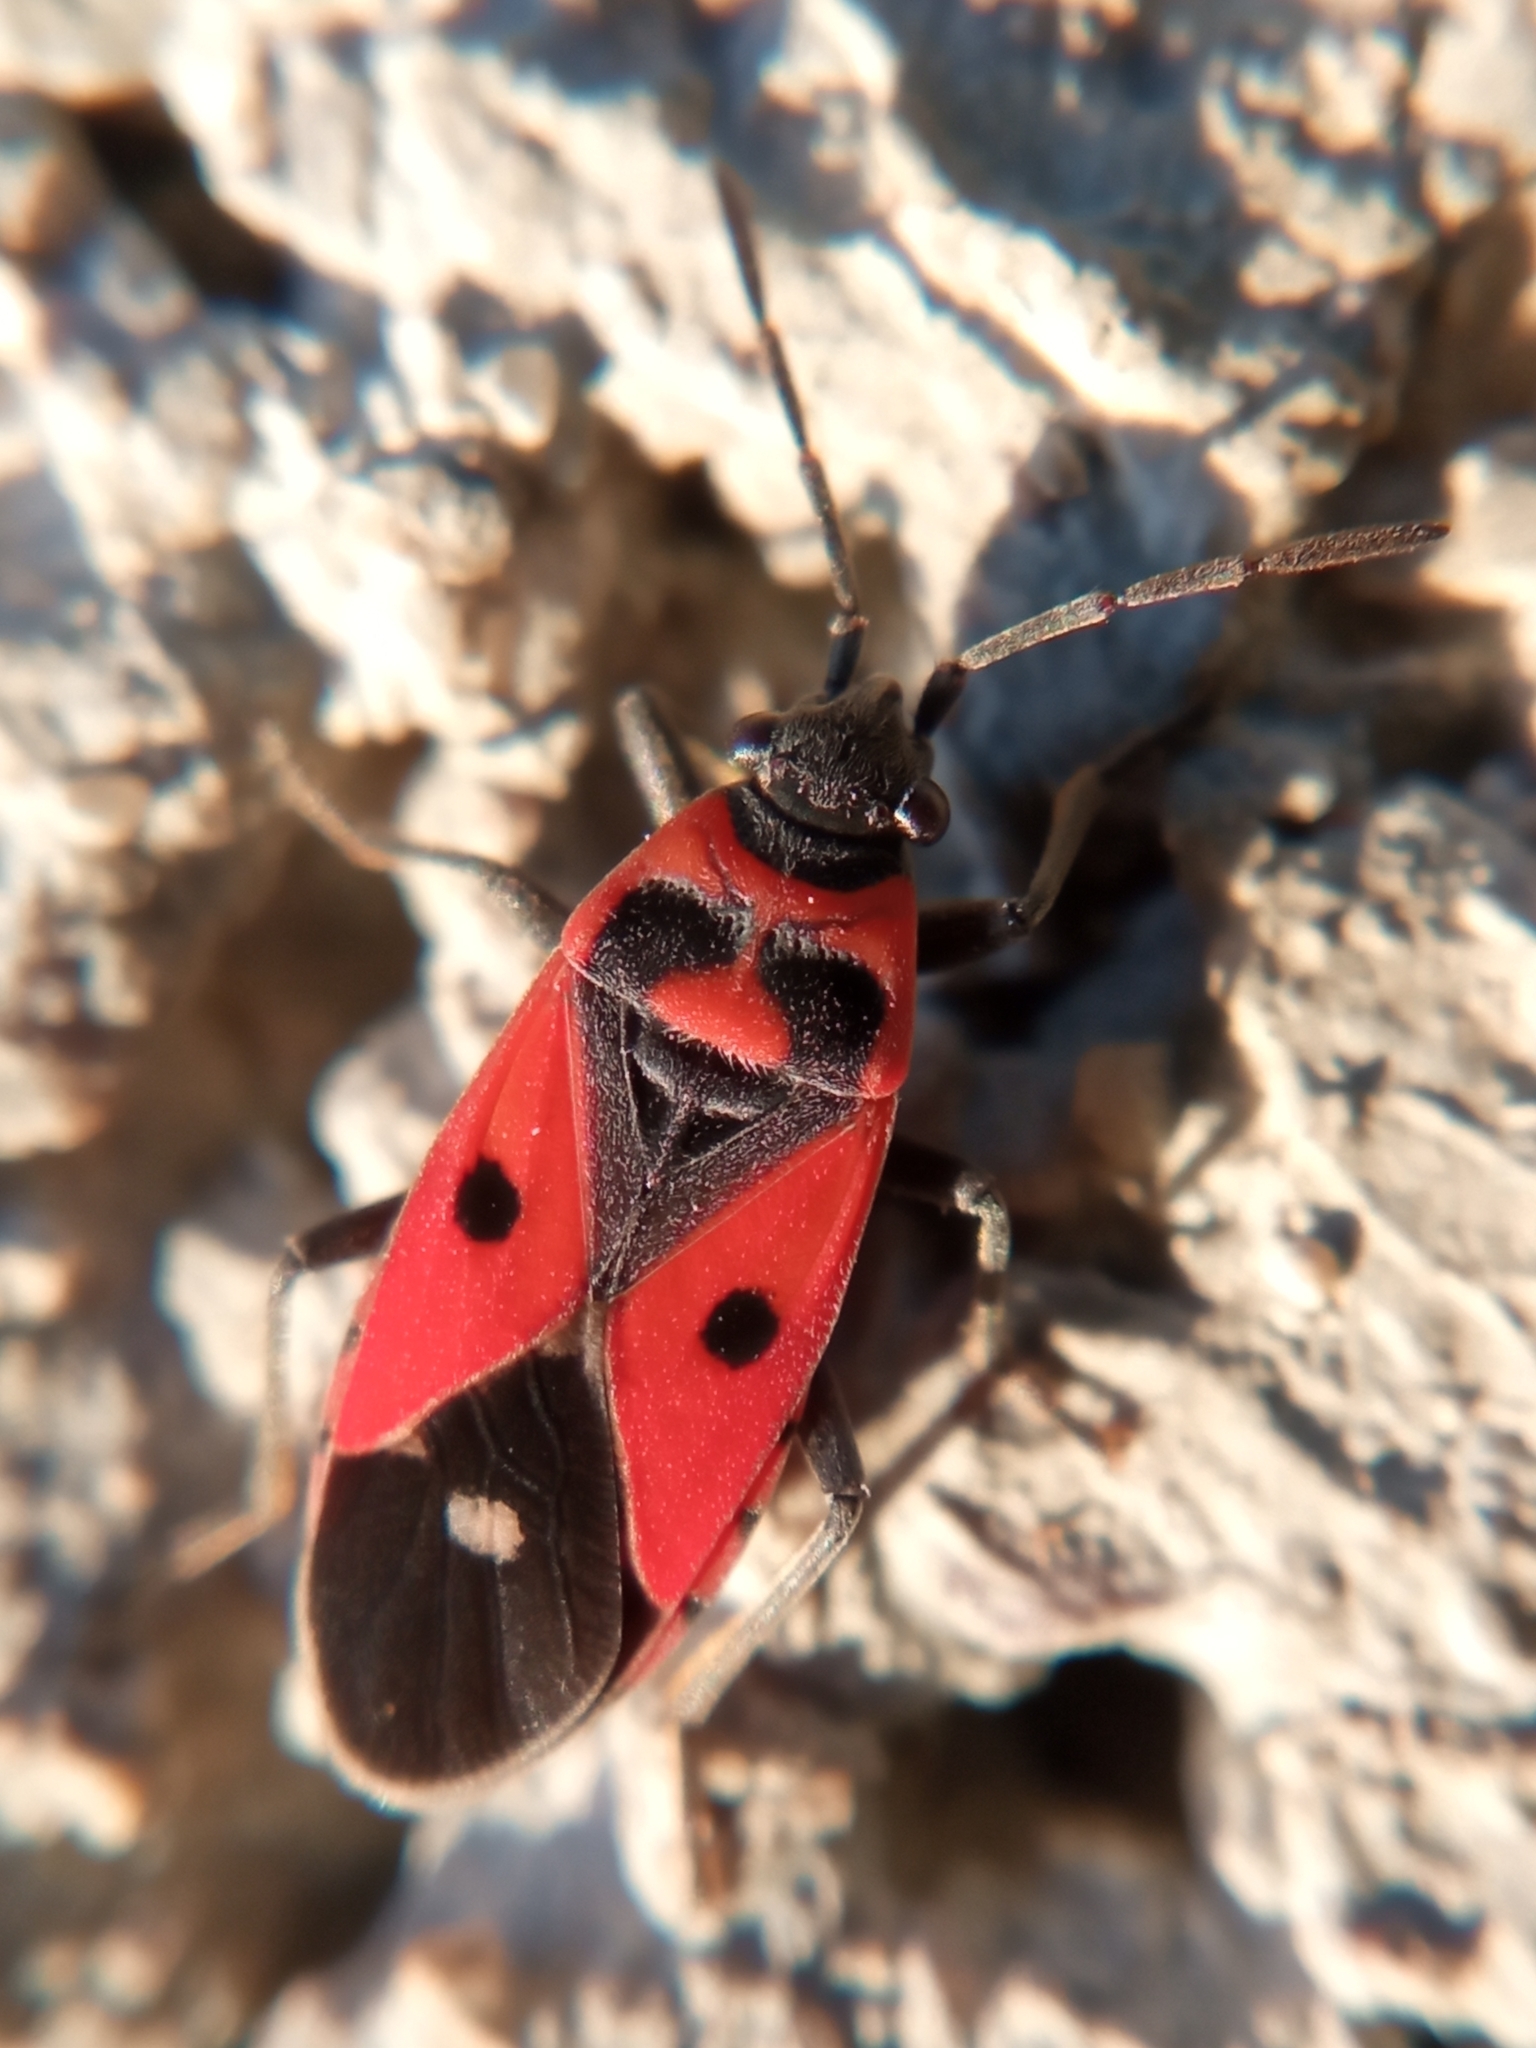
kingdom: Animalia
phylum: Arthropoda
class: Insecta
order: Hemiptera
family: Lygaeidae
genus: Melanocoryphus
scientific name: Melanocoryphus albomaculatus
